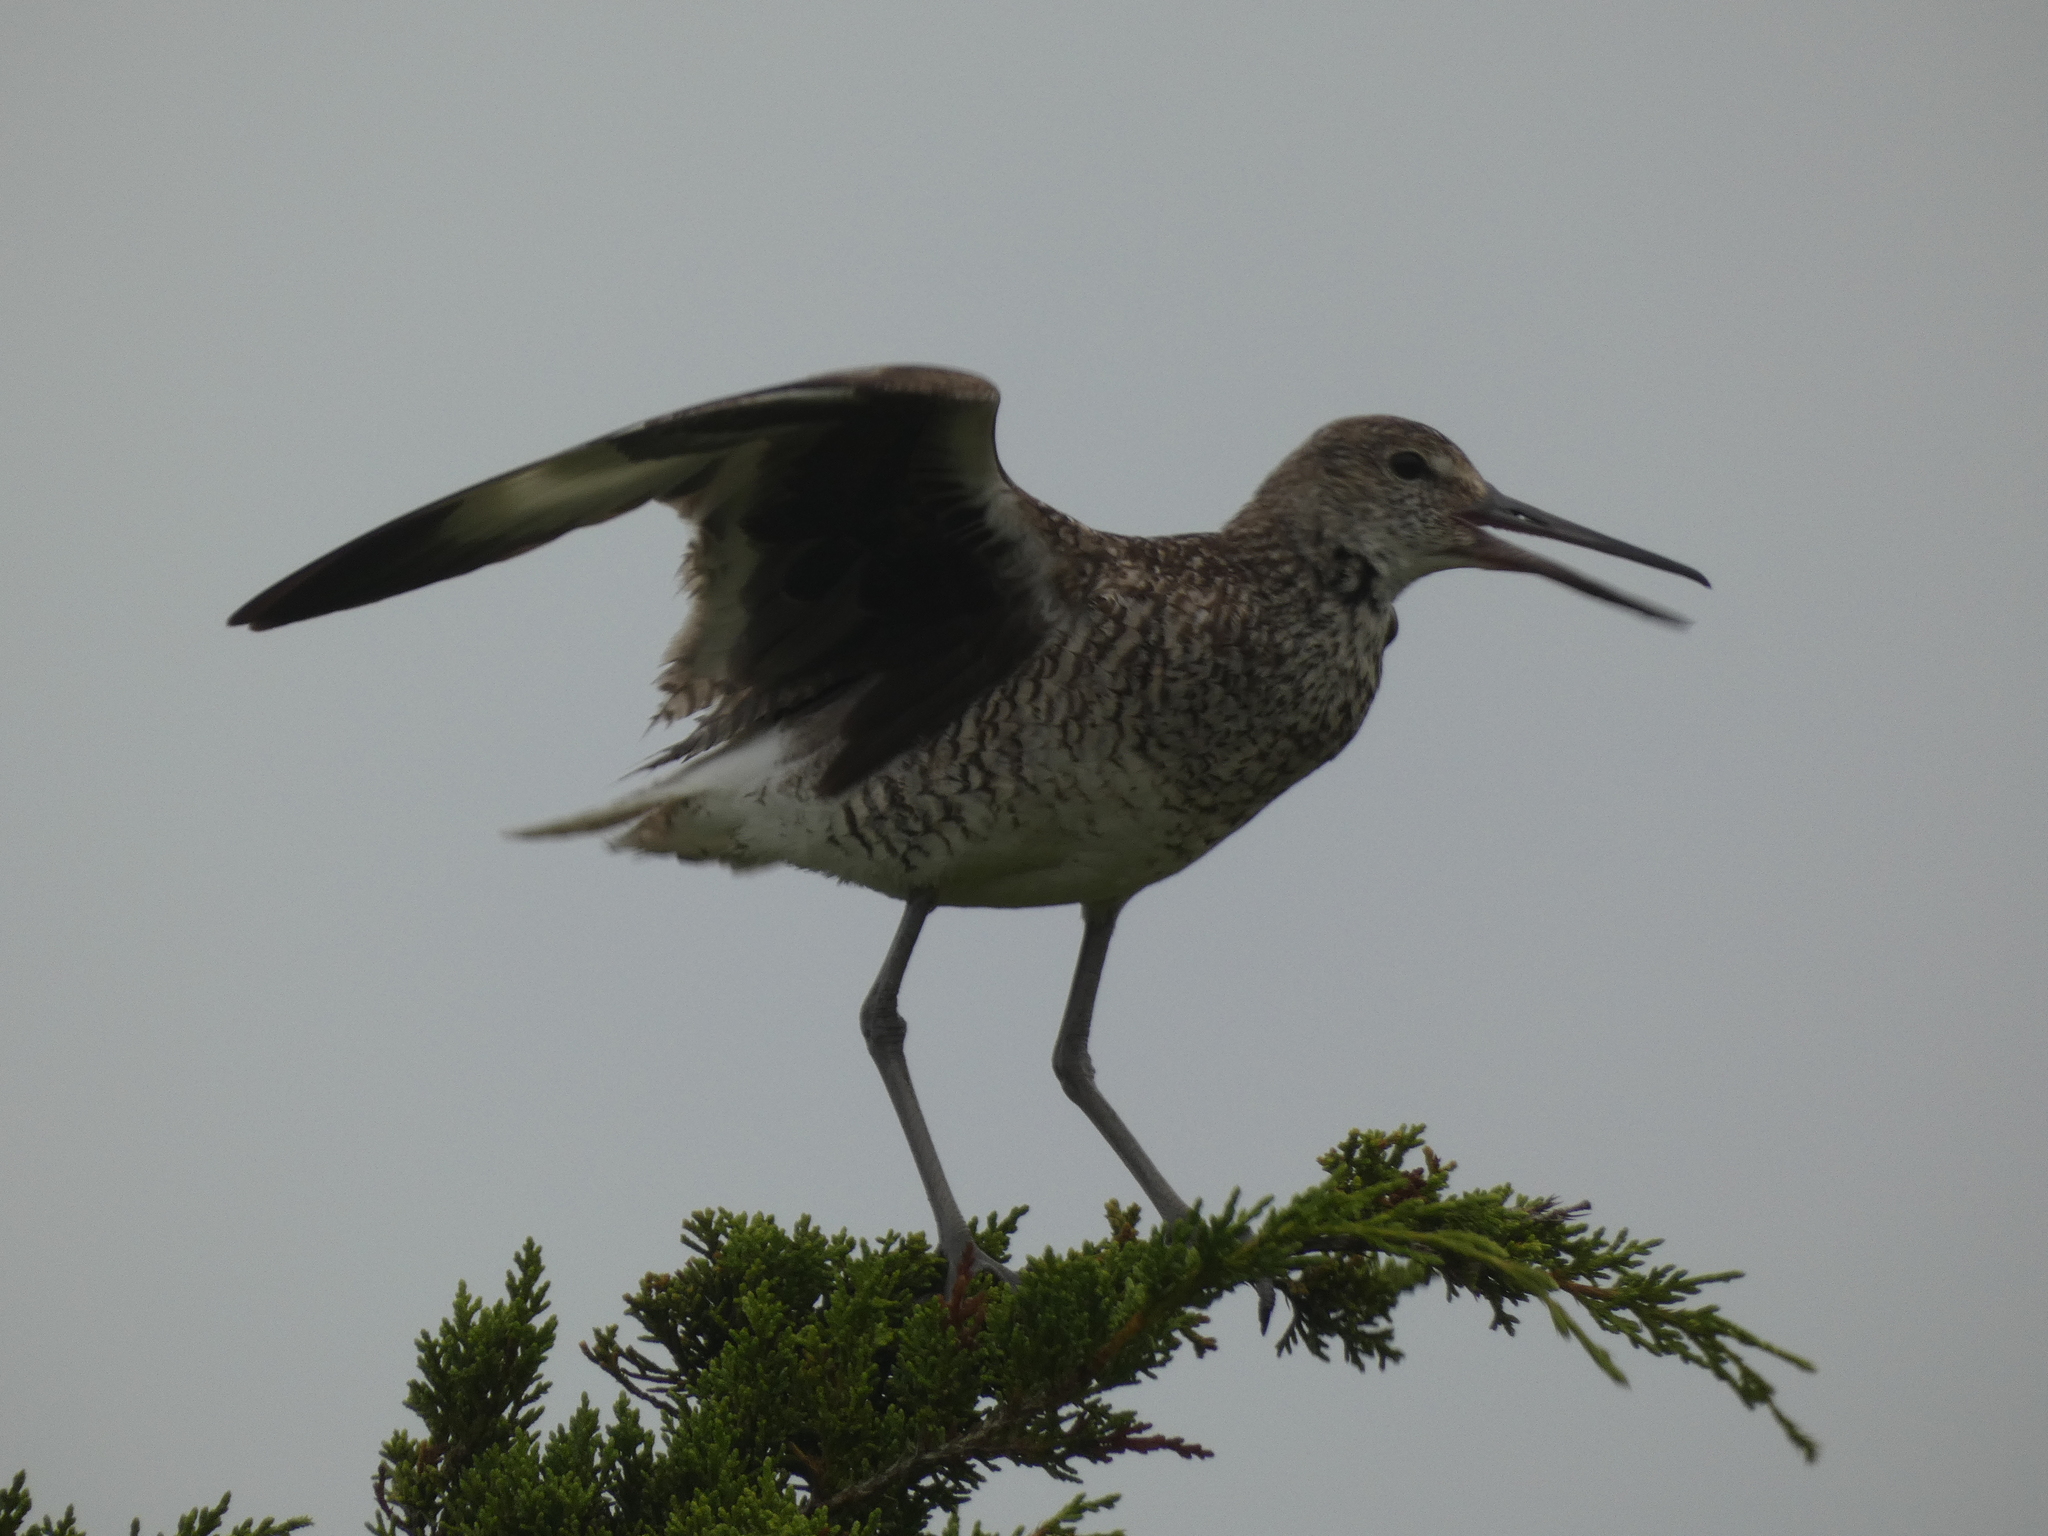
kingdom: Animalia
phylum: Chordata
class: Aves
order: Charadriiformes
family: Scolopacidae
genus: Tringa
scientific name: Tringa semipalmata
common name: Willet
